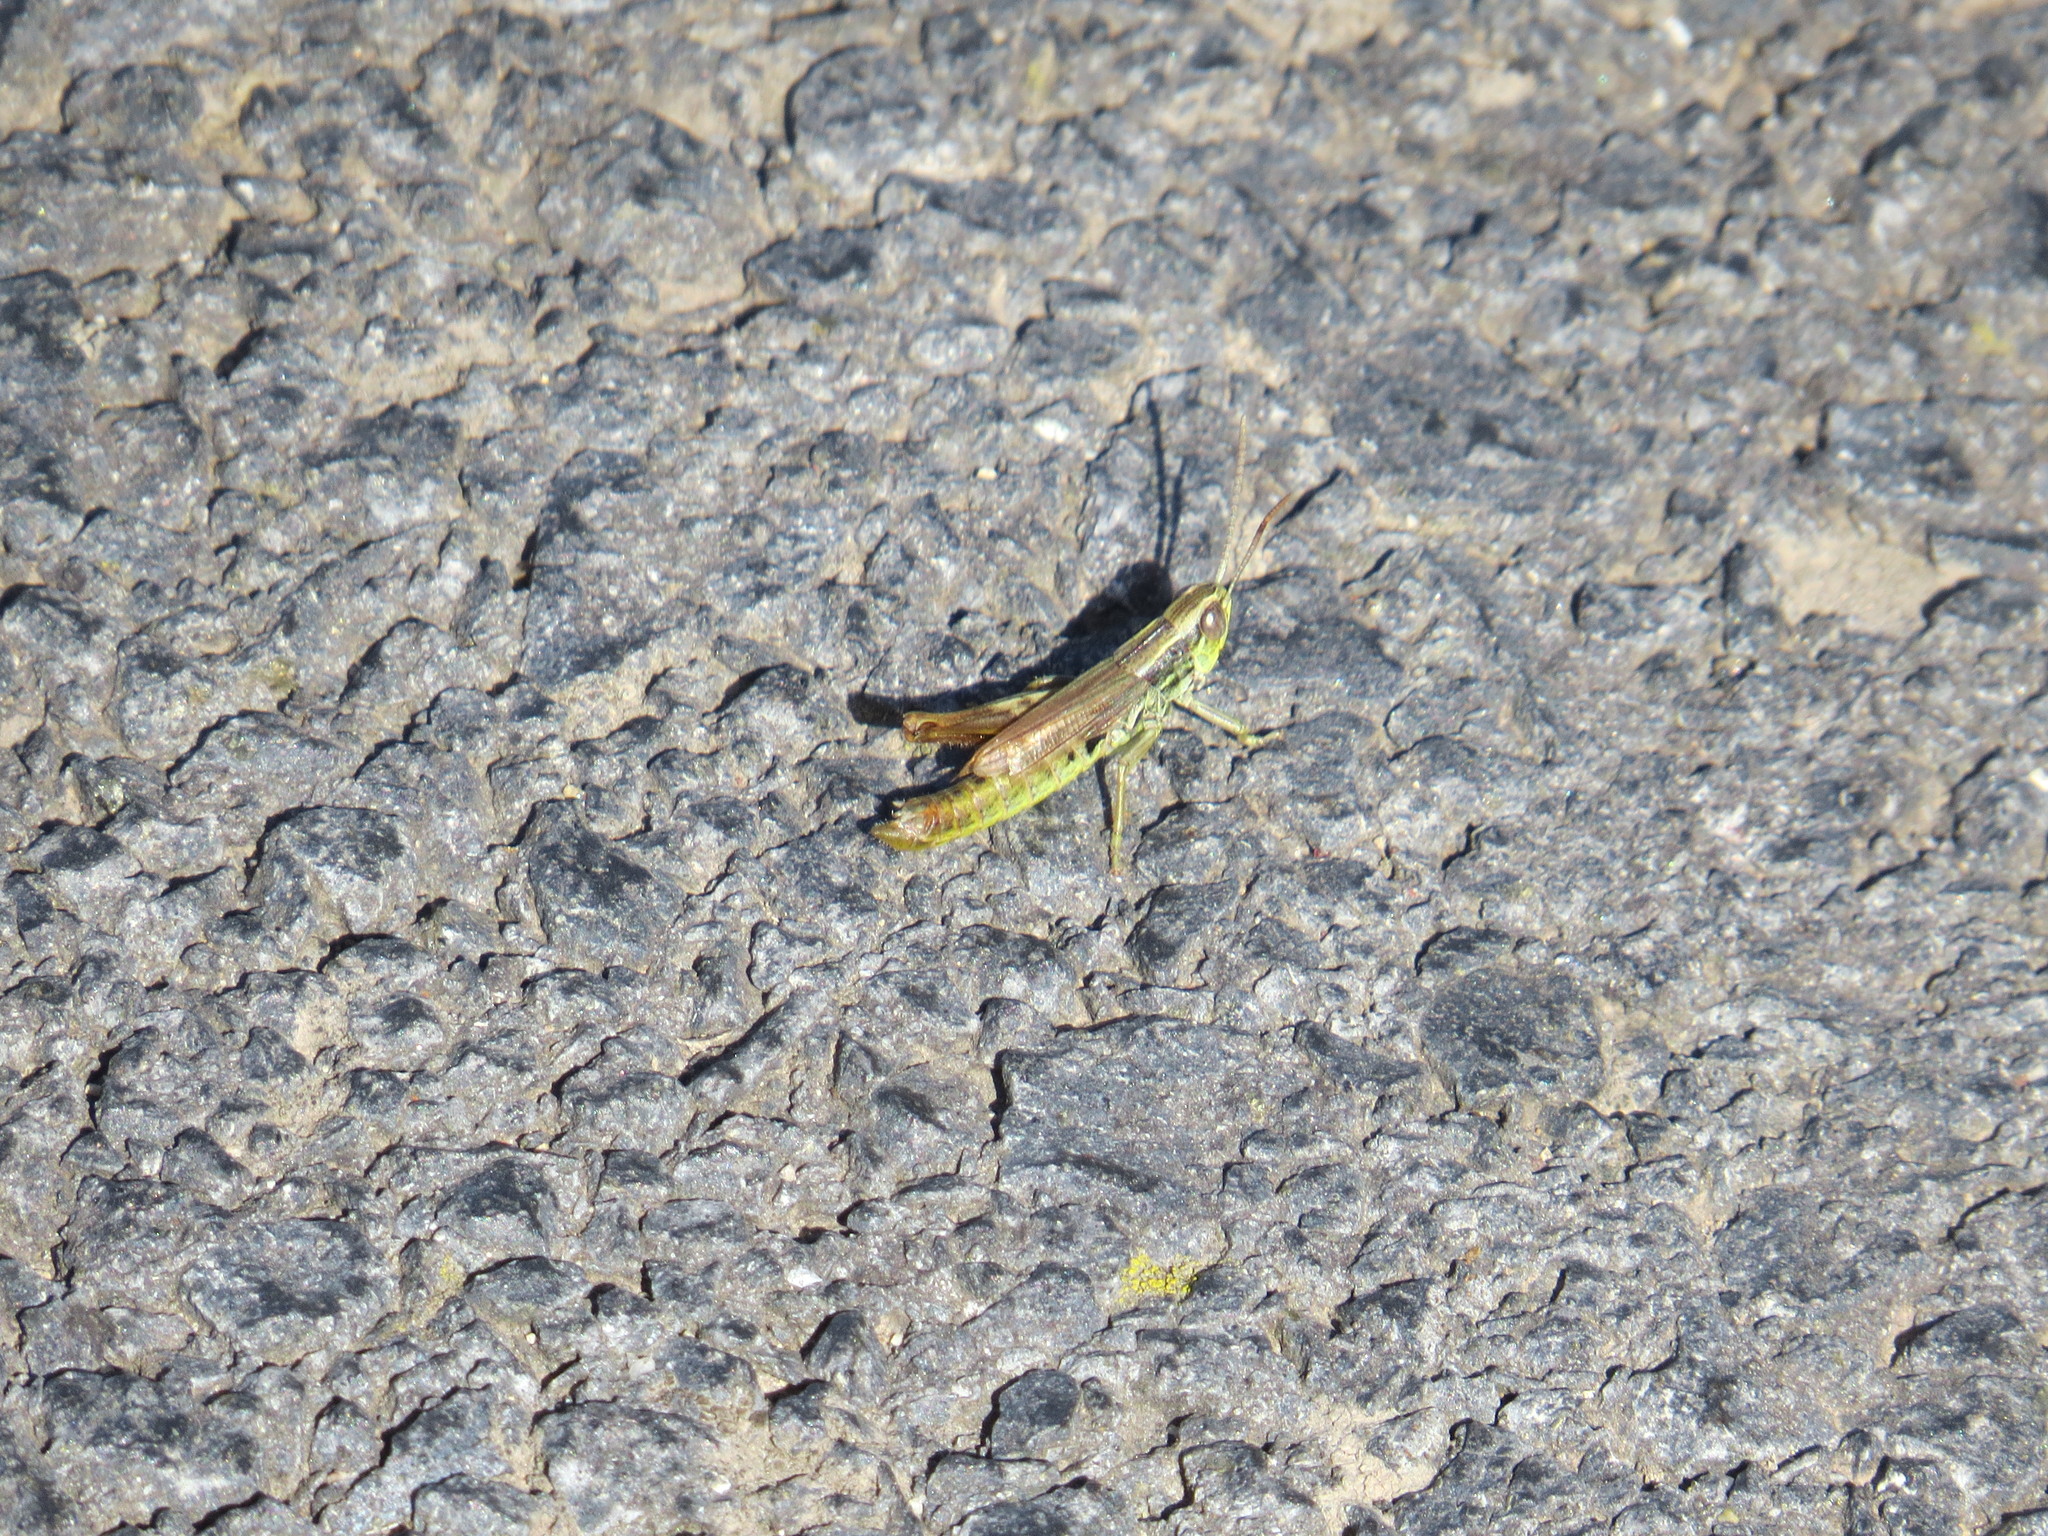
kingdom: Animalia
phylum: Arthropoda
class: Insecta
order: Orthoptera
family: Acrididae
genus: Euchorthippus
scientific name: Euchorthippus declivus
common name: Common straw grasshopper
